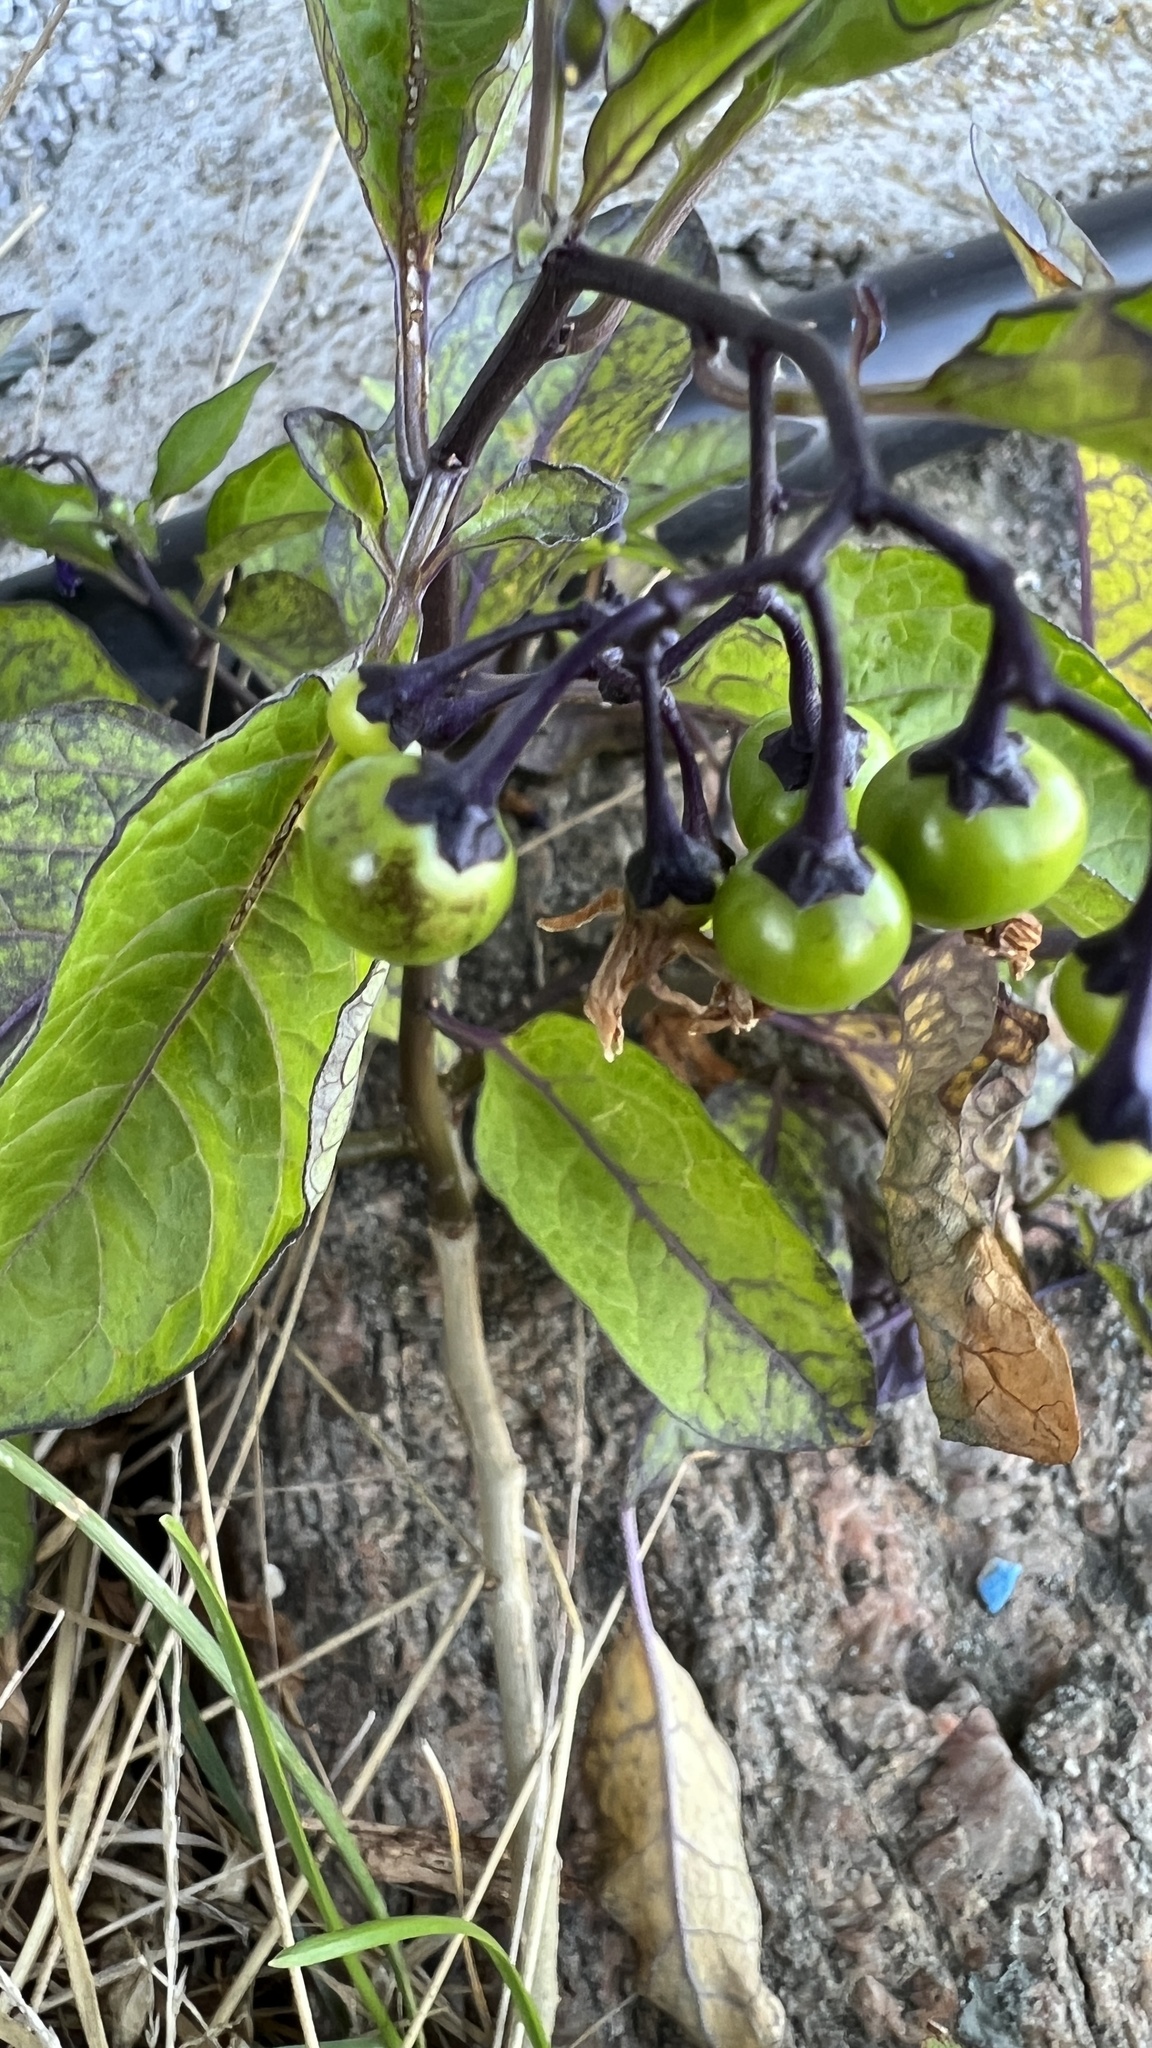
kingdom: Plantae
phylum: Tracheophyta
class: Magnoliopsida
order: Solanales
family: Solanaceae
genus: Solanum
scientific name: Solanum dulcamara
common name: Climbing nightshade
